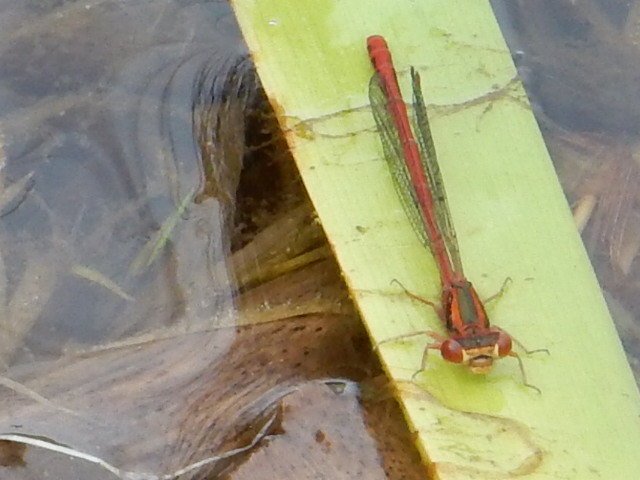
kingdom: Animalia
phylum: Arthropoda
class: Insecta
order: Odonata
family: Coenagrionidae
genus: Xanthocnemis
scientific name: Xanthocnemis zealandica
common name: Common redcoat damselfly
